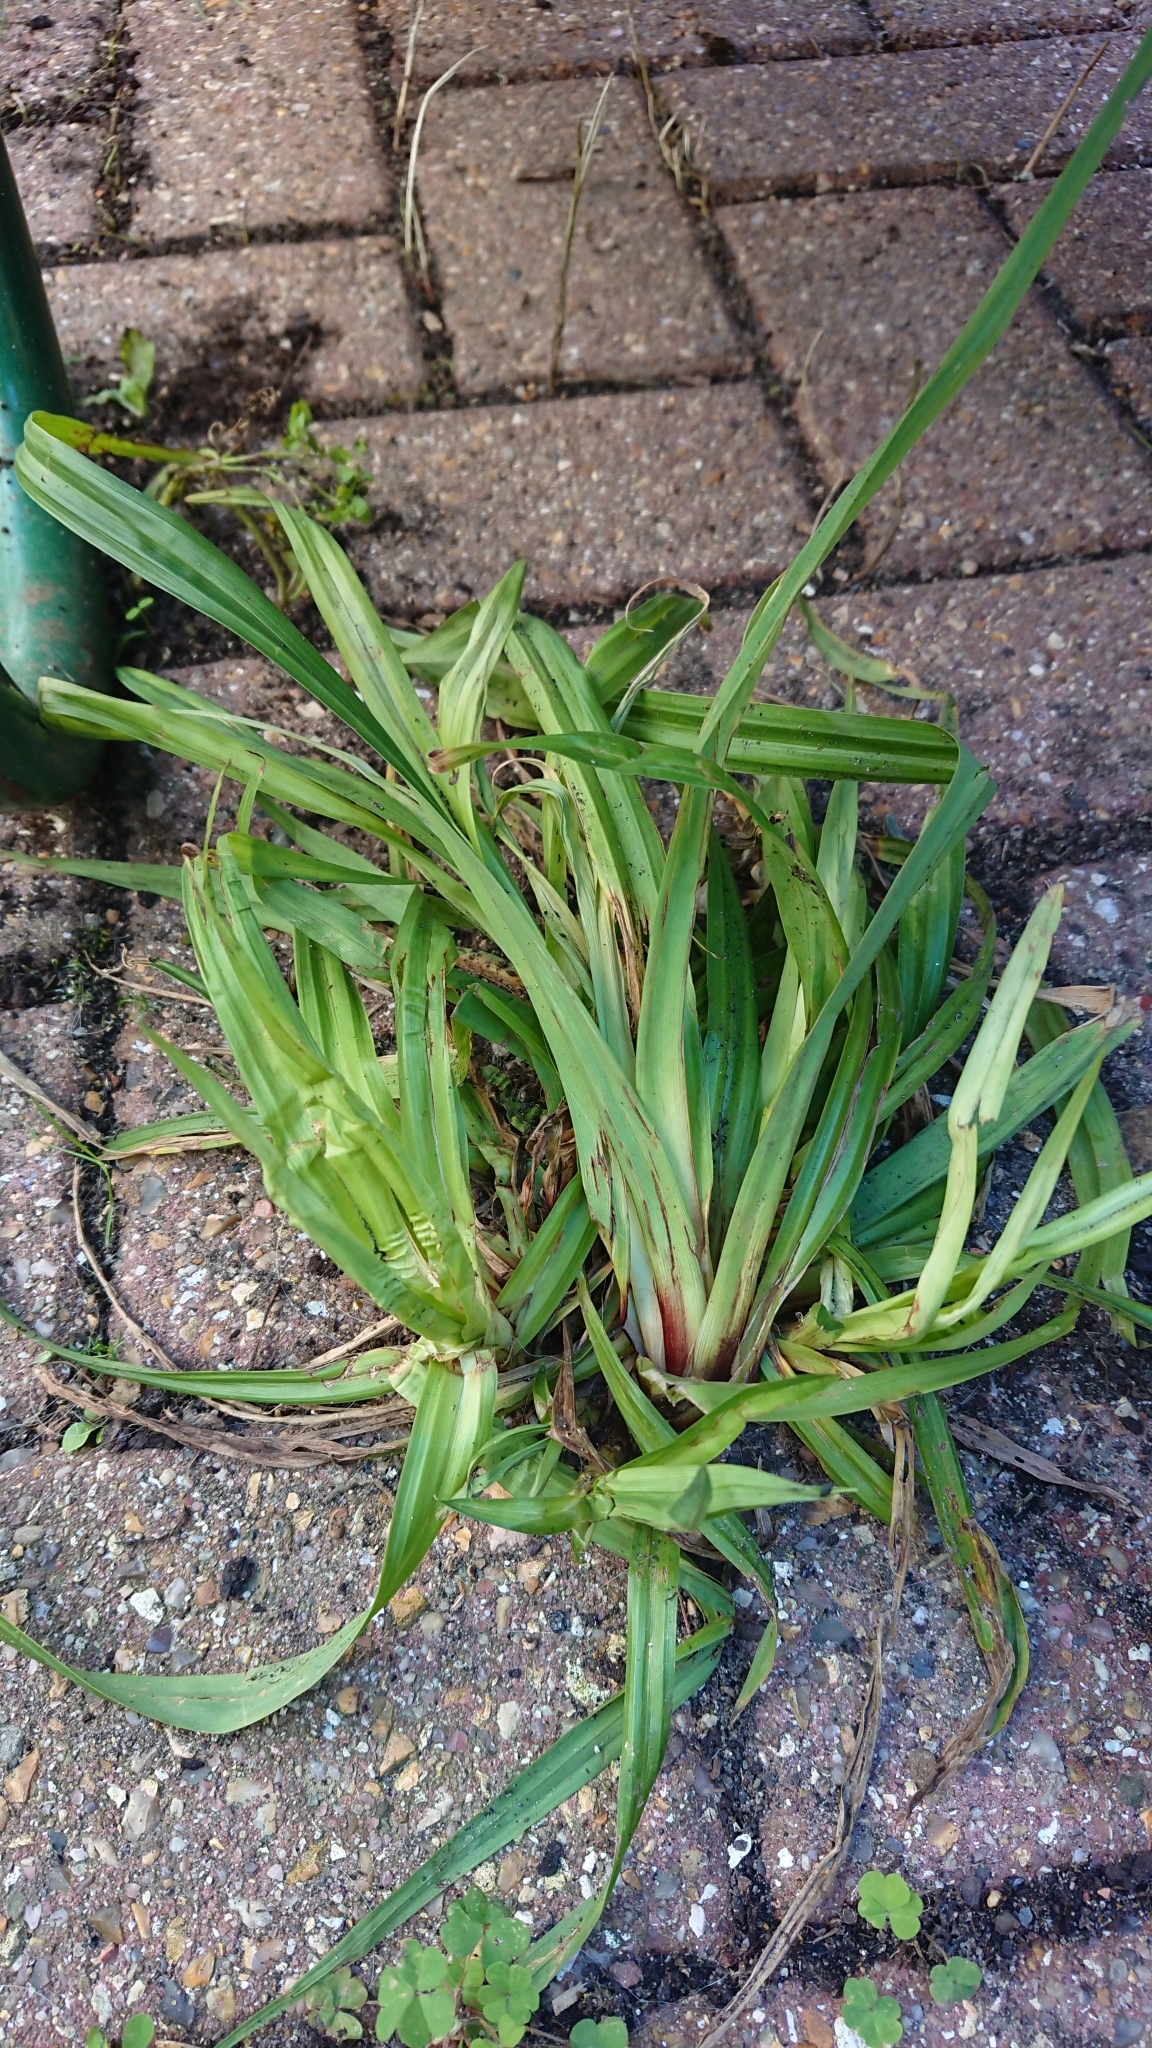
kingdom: Plantae
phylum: Tracheophyta
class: Liliopsida
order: Poales
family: Cyperaceae
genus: Carex
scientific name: Carex pendula
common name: Pendulous sedge
